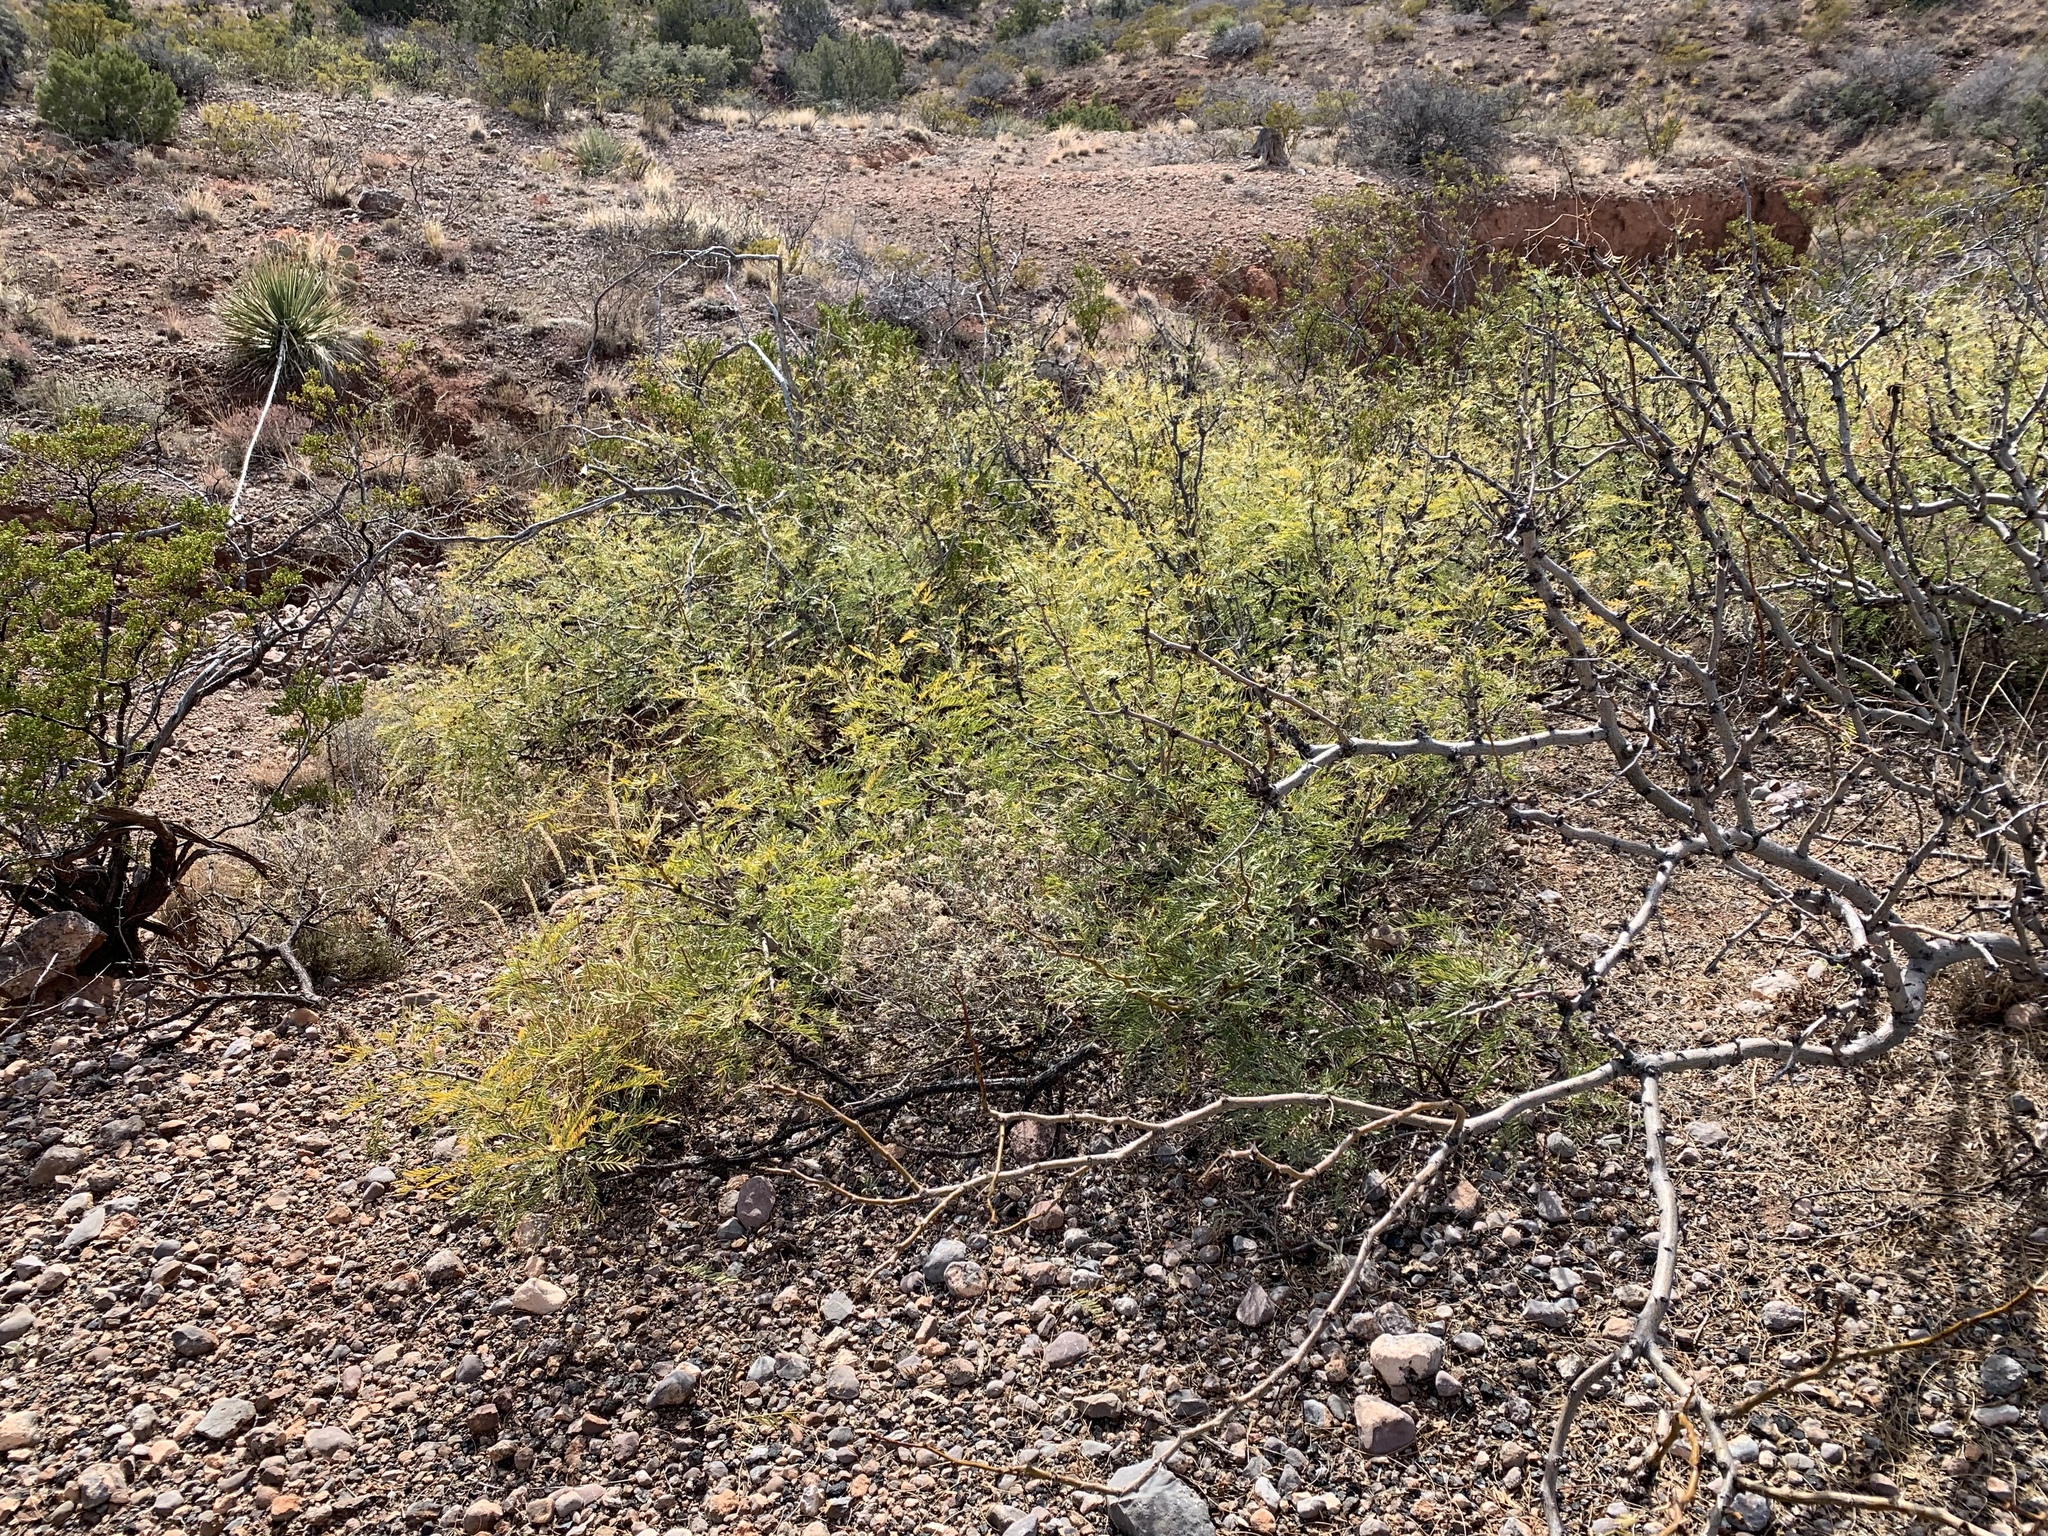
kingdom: Plantae
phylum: Tracheophyta
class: Magnoliopsida
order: Fabales
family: Fabaceae
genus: Prosopis
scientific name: Prosopis glandulosa
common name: Honey mesquite
